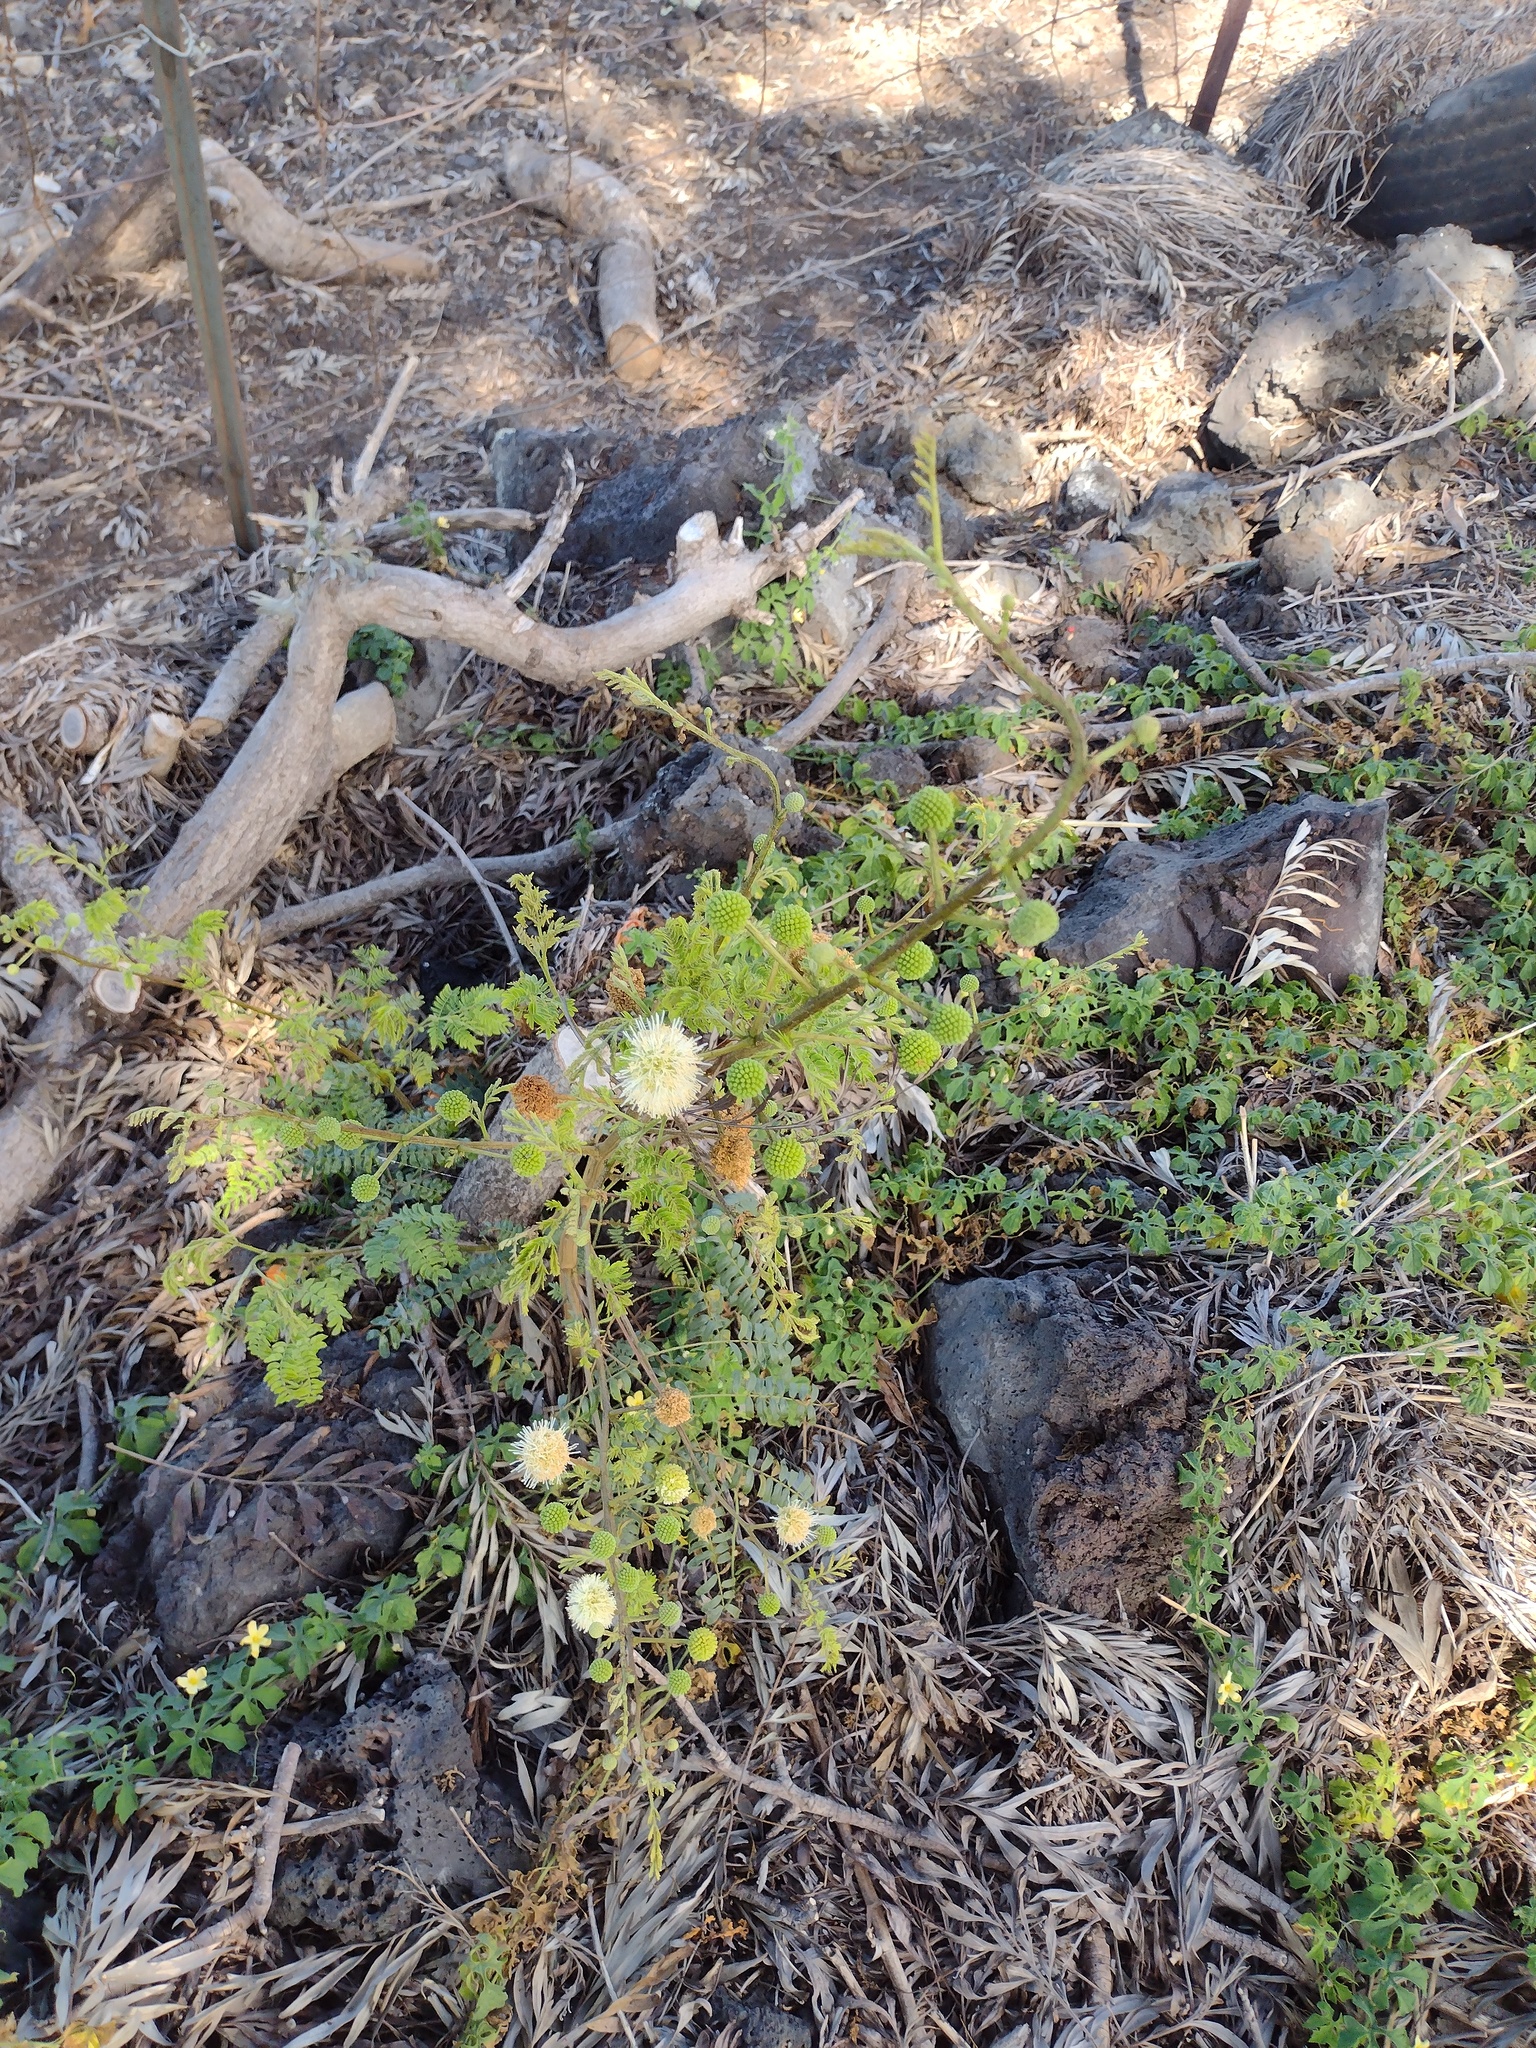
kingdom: Plantae
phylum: Tracheophyta
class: Magnoliopsida
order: Fabales
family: Fabaceae
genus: Leucaena
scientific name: Leucaena leucocephala
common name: White leadtree
